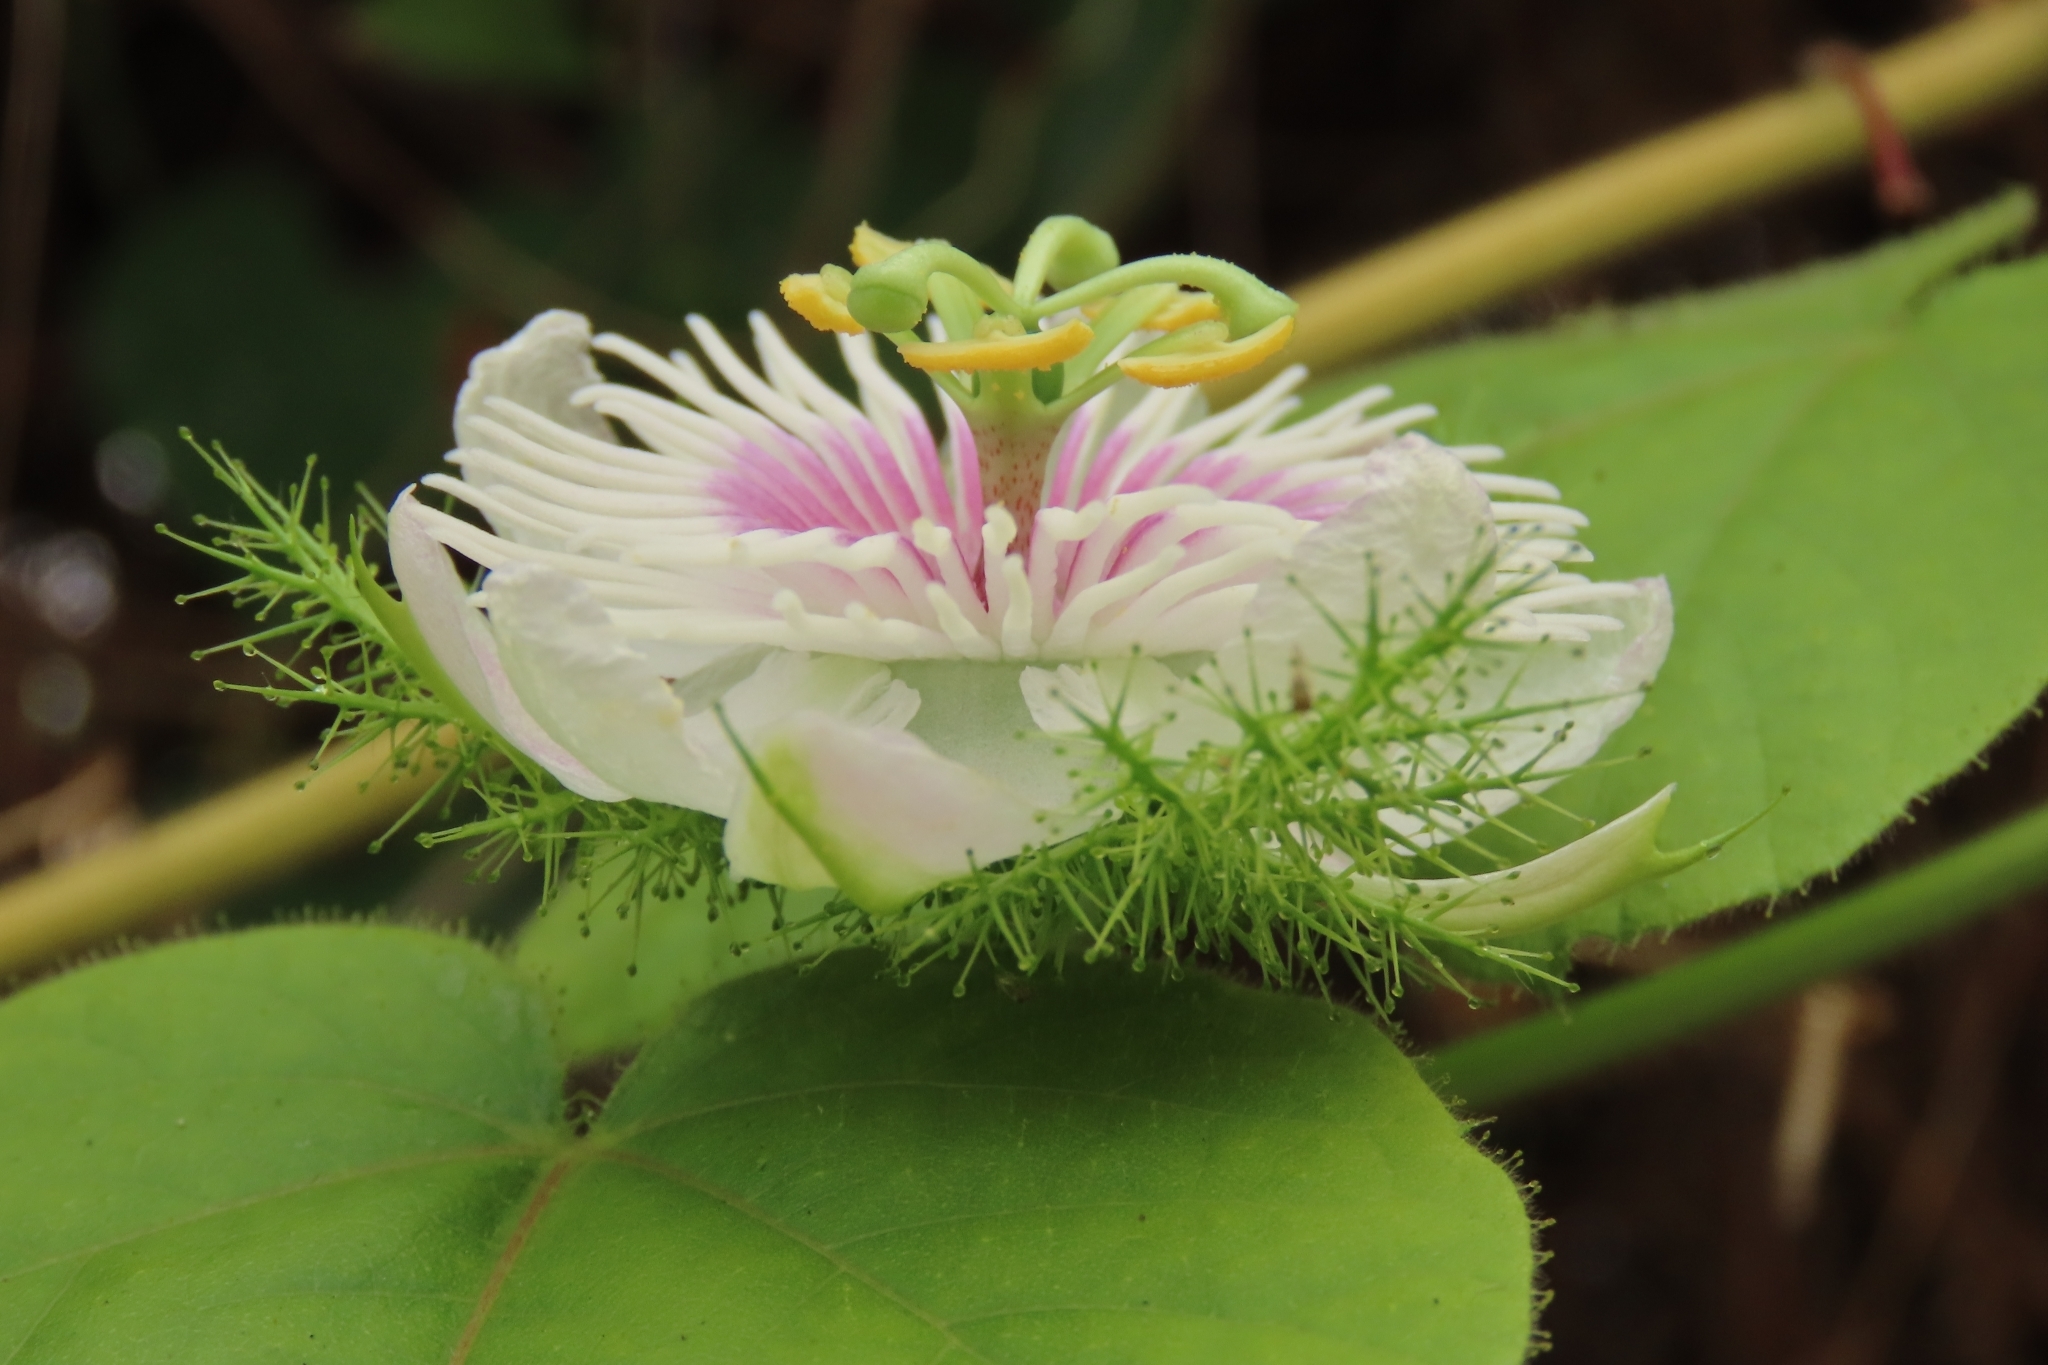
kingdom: Plantae
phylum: Tracheophyta
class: Magnoliopsida
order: Malpighiales
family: Passifloraceae
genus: Passiflora
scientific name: Passiflora vesicaria
